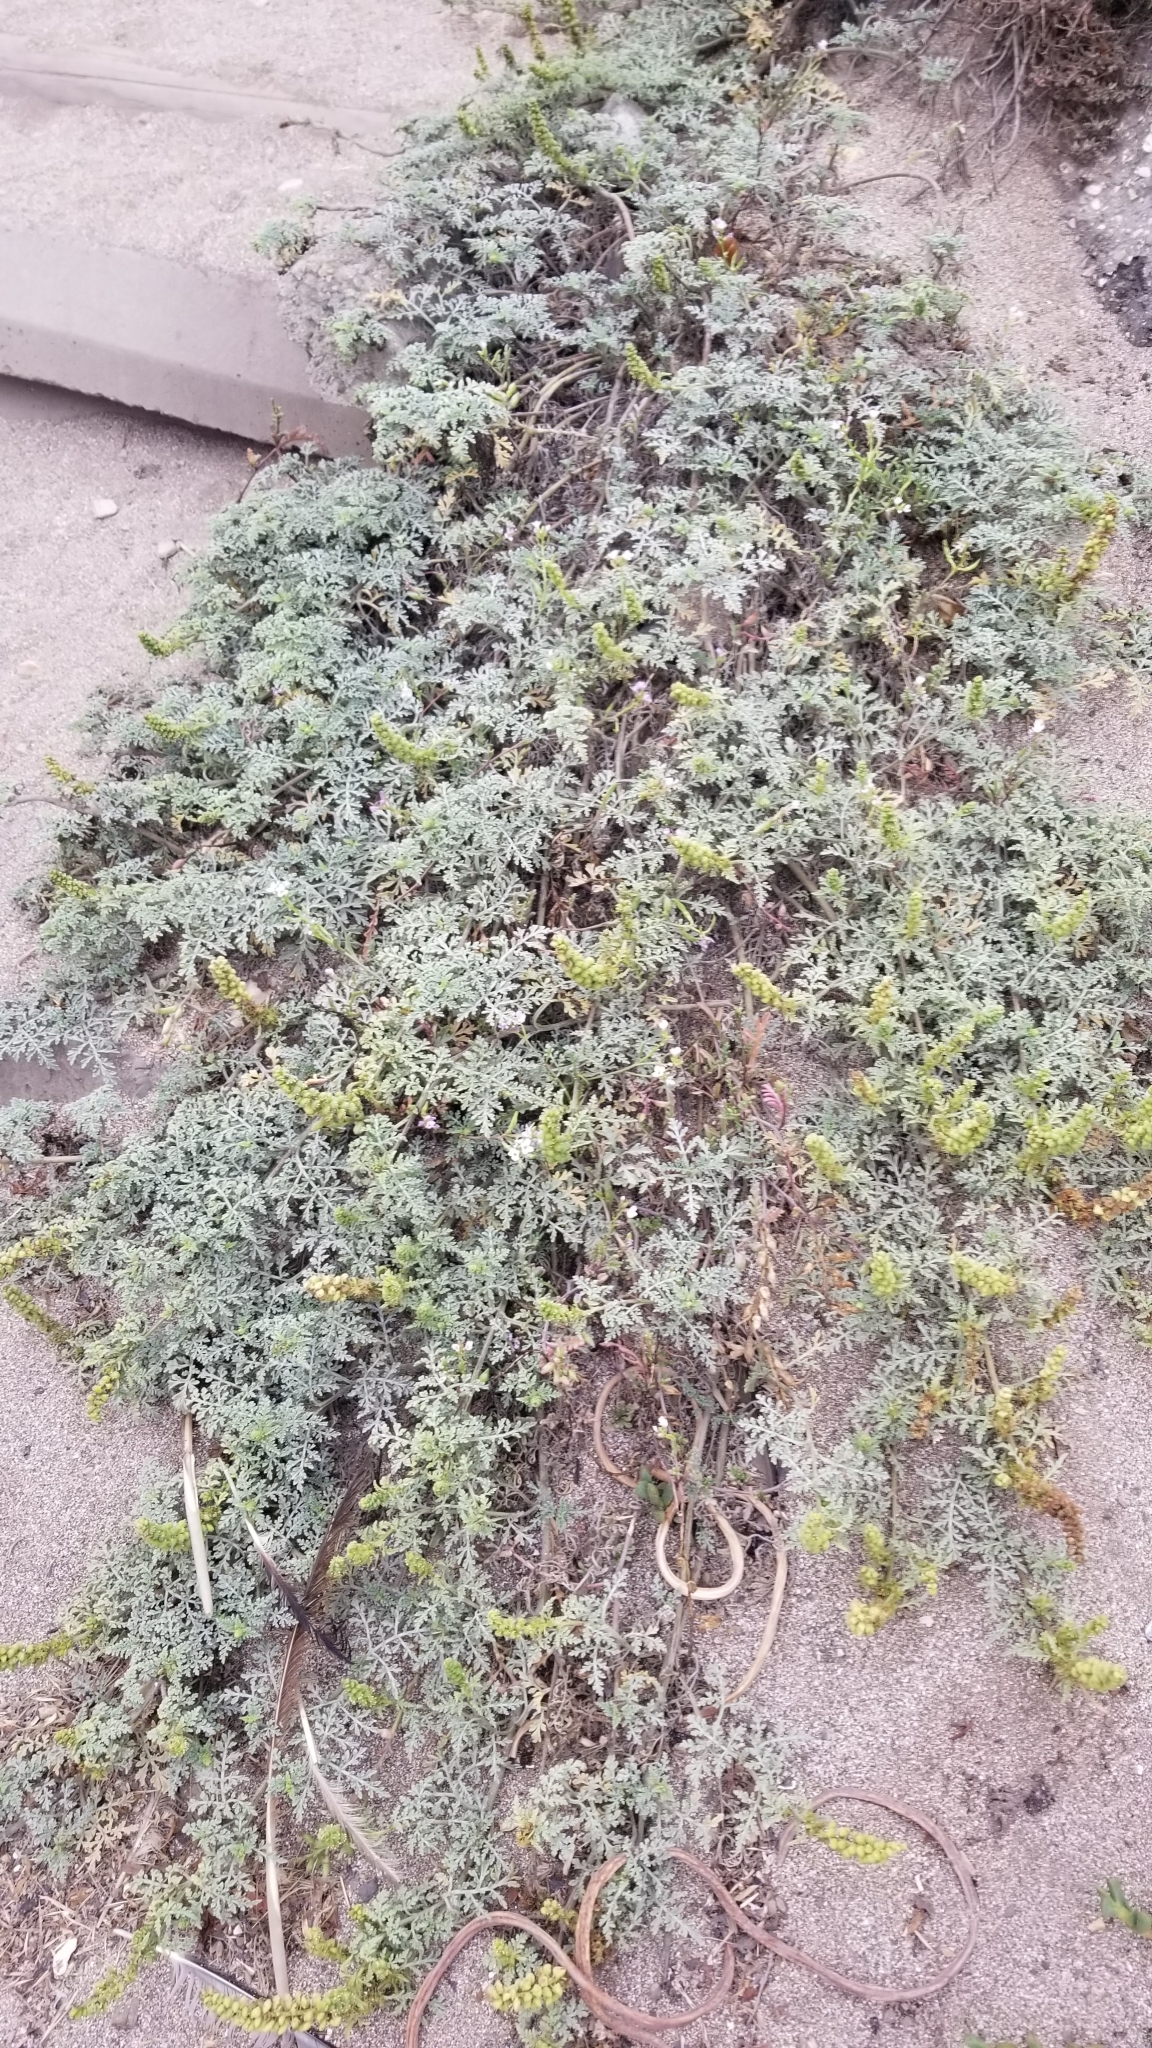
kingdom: Plantae
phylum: Tracheophyta
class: Magnoliopsida
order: Asterales
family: Asteraceae
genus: Ambrosia
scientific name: Ambrosia chamissonis
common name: Beachbur
